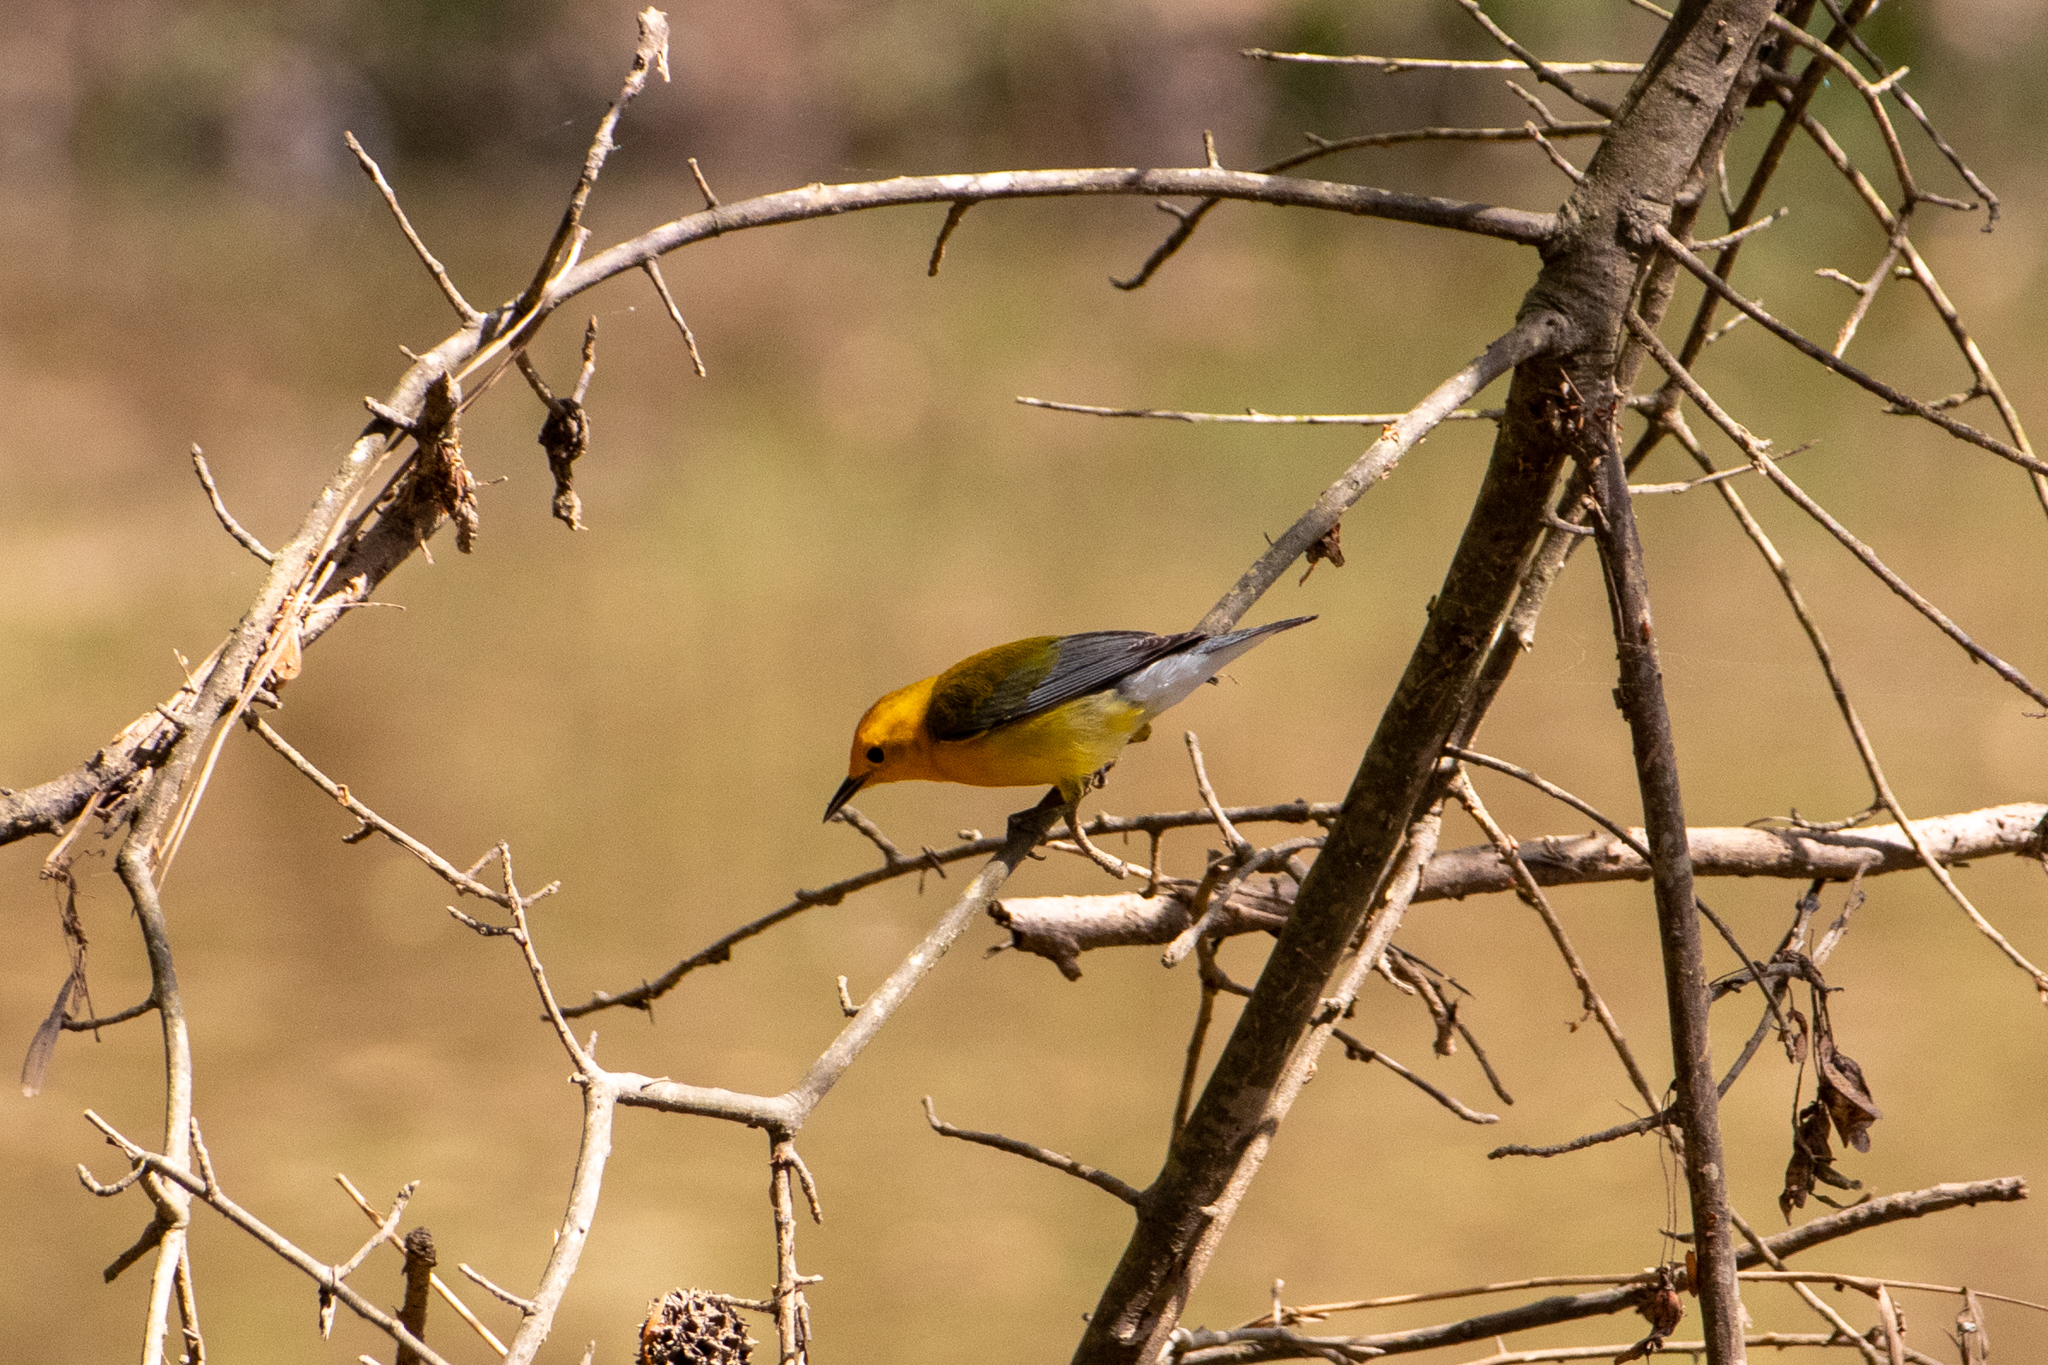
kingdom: Animalia
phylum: Chordata
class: Aves
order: Passeriformes
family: Parulidae
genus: Protonotaria
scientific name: Protonotaria citrea
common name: Prothonotary warbler
